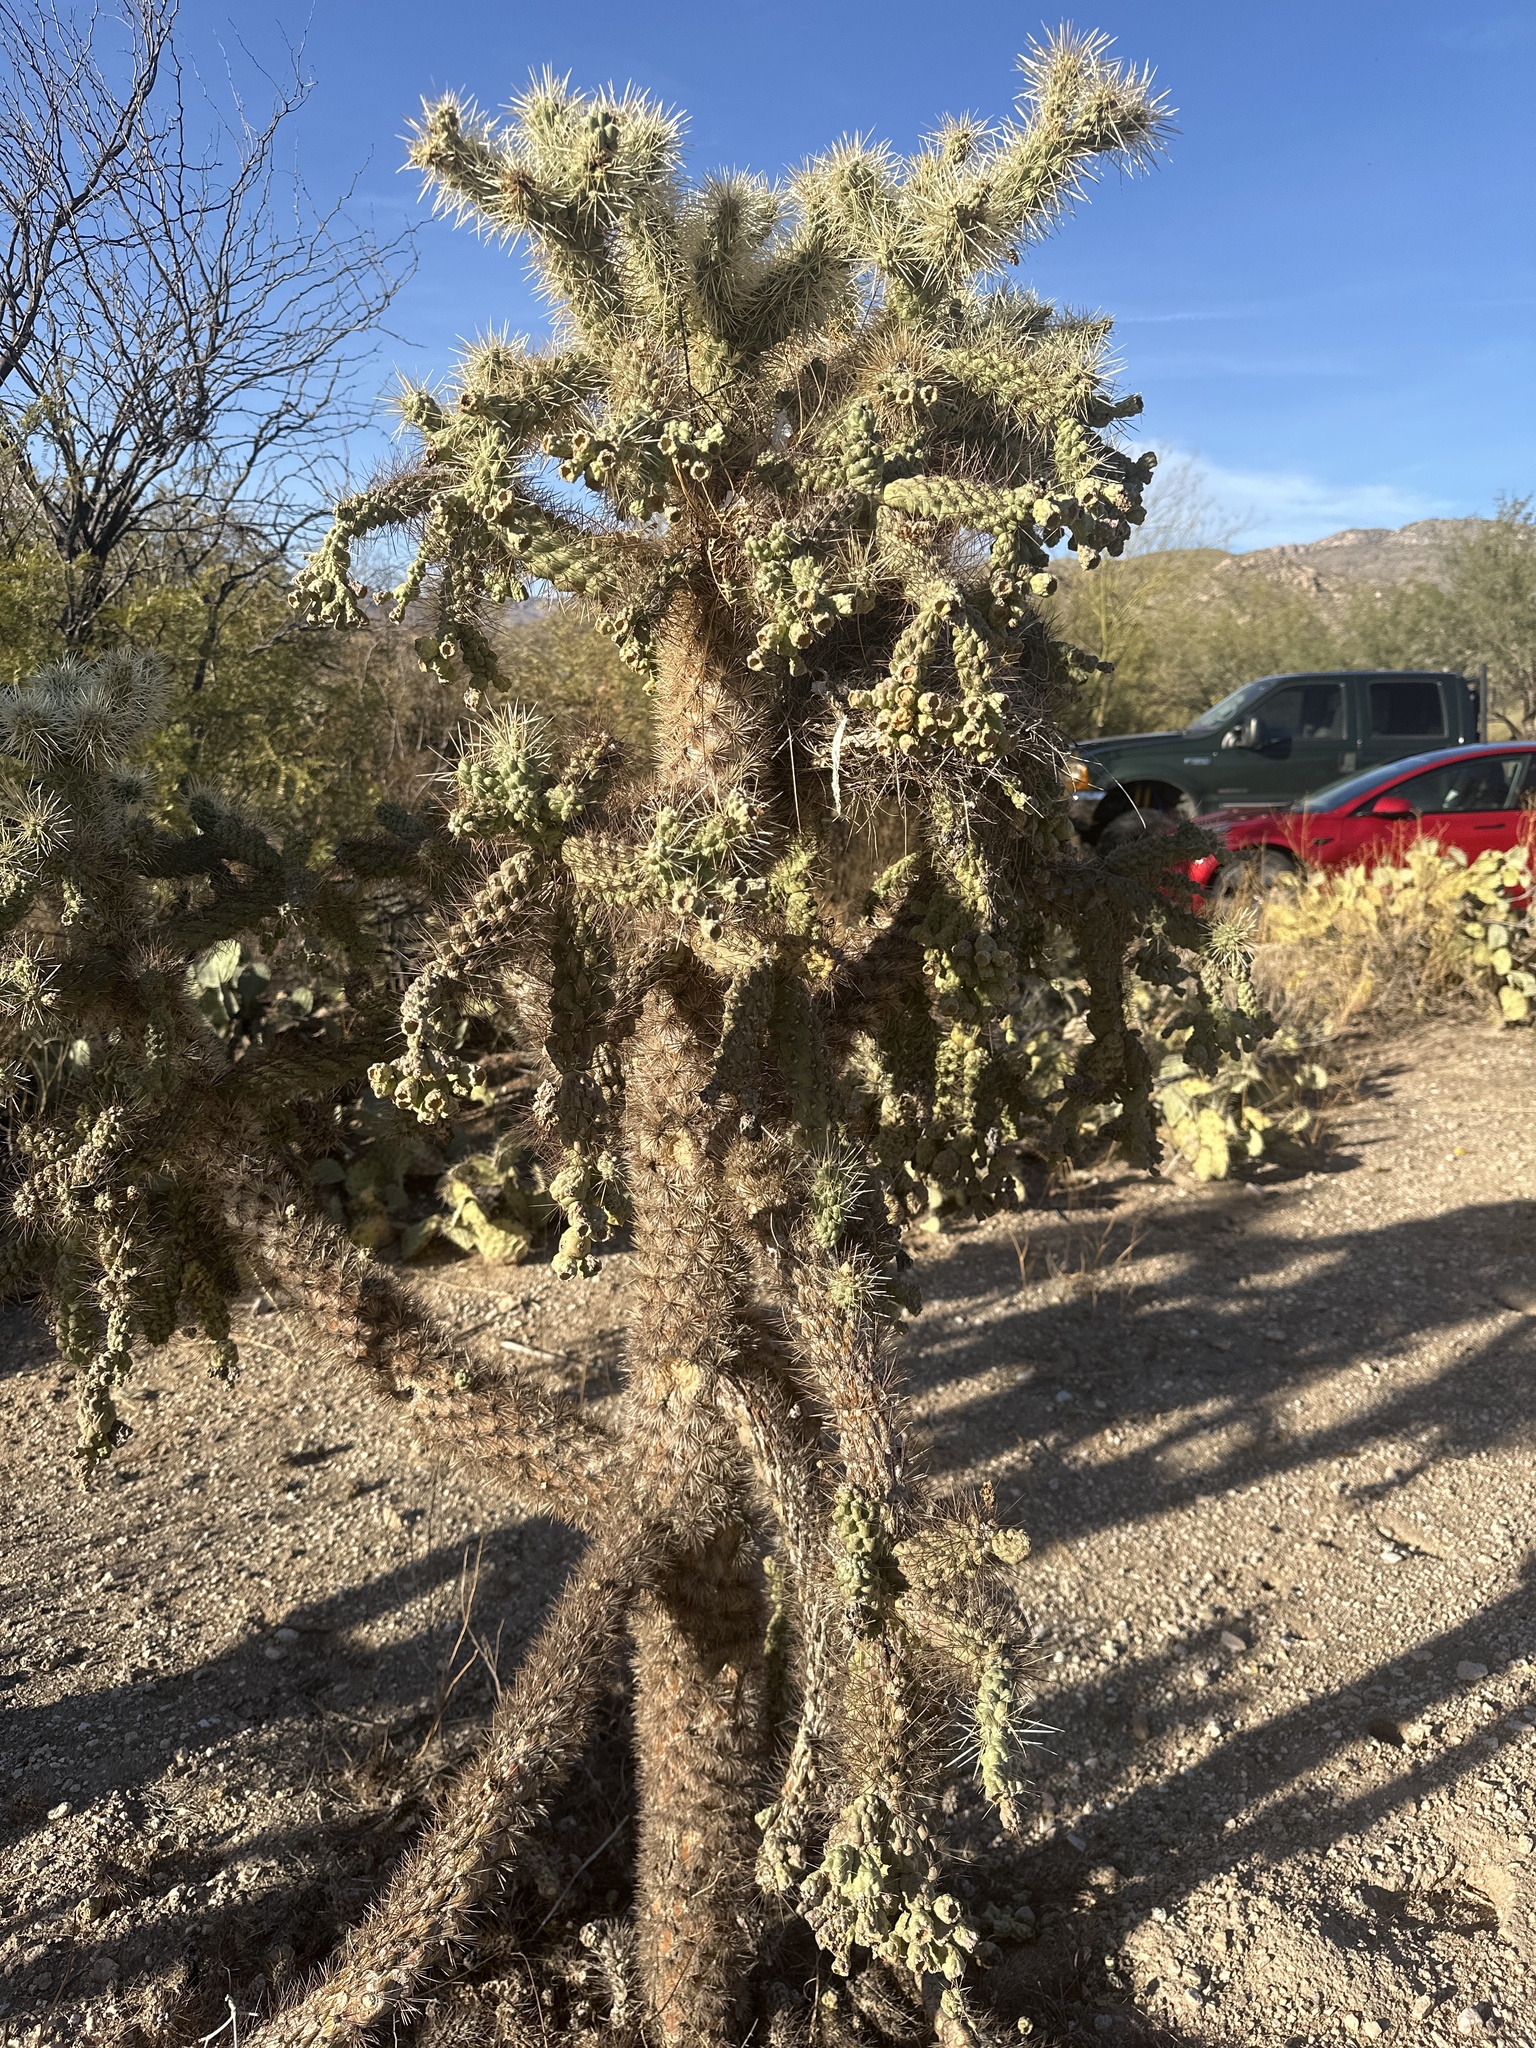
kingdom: Plantae
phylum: Tracheophyta
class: Magnoliopsida
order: Caryophyllales
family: Cactaceae
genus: Cylindropuntia
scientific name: Cylindropuntia fulgida
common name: Jumping cholla
